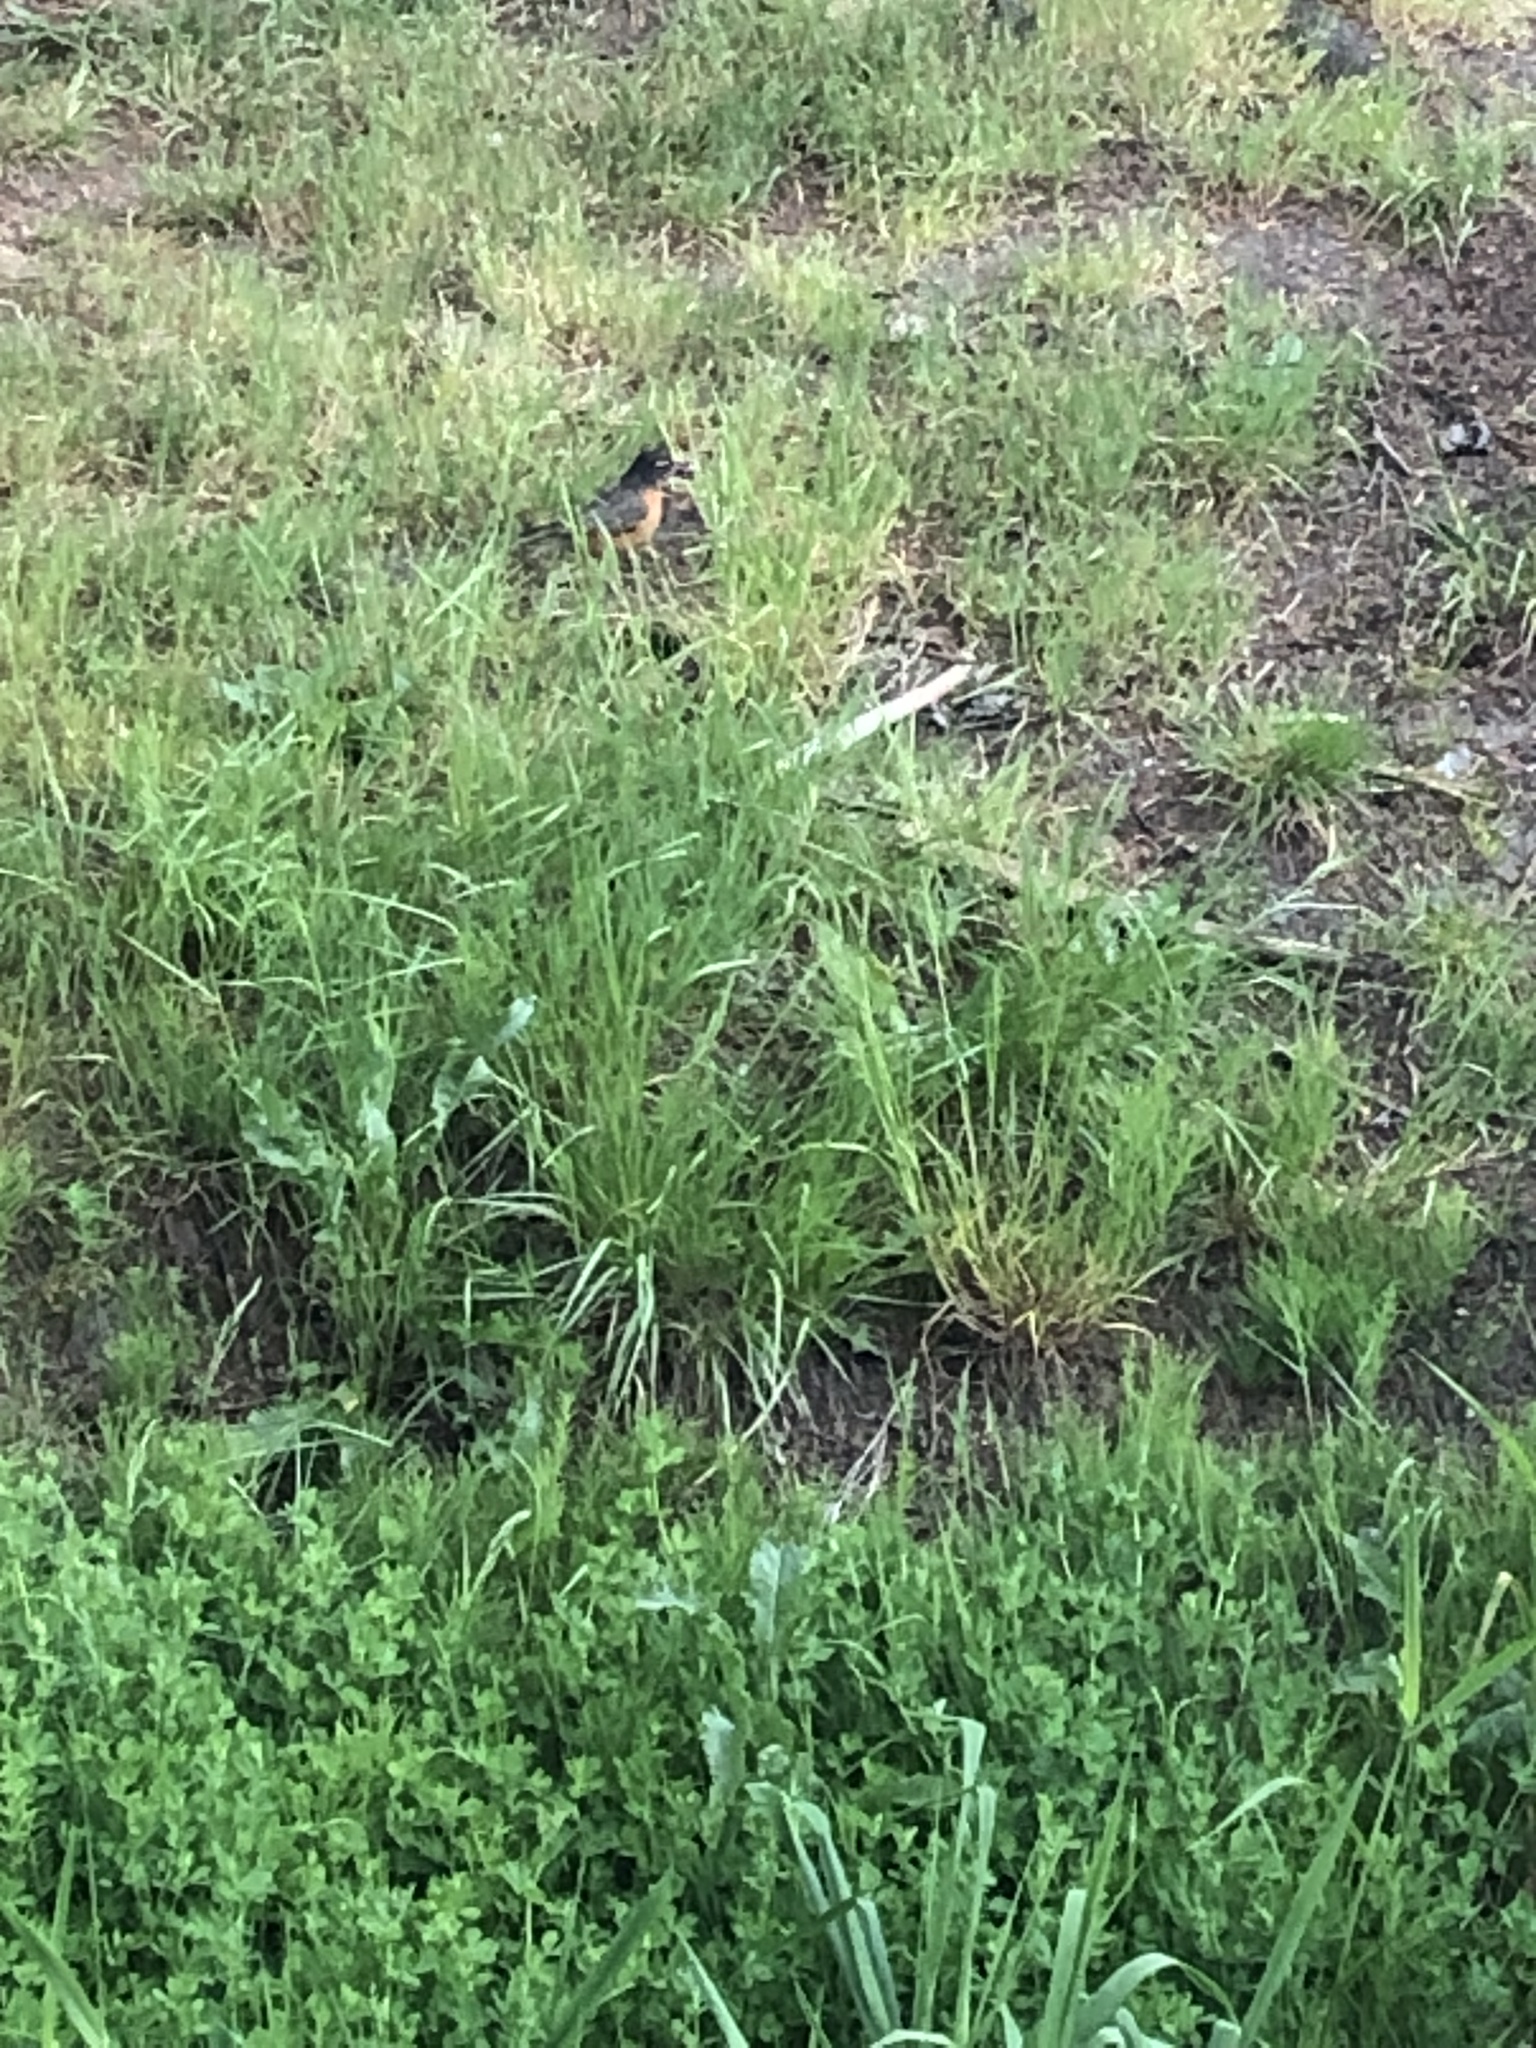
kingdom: Animalia
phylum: Chordata
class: Aves
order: Passeriformes
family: Turdidae
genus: Turdus
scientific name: Turdus migratorius
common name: American robin
